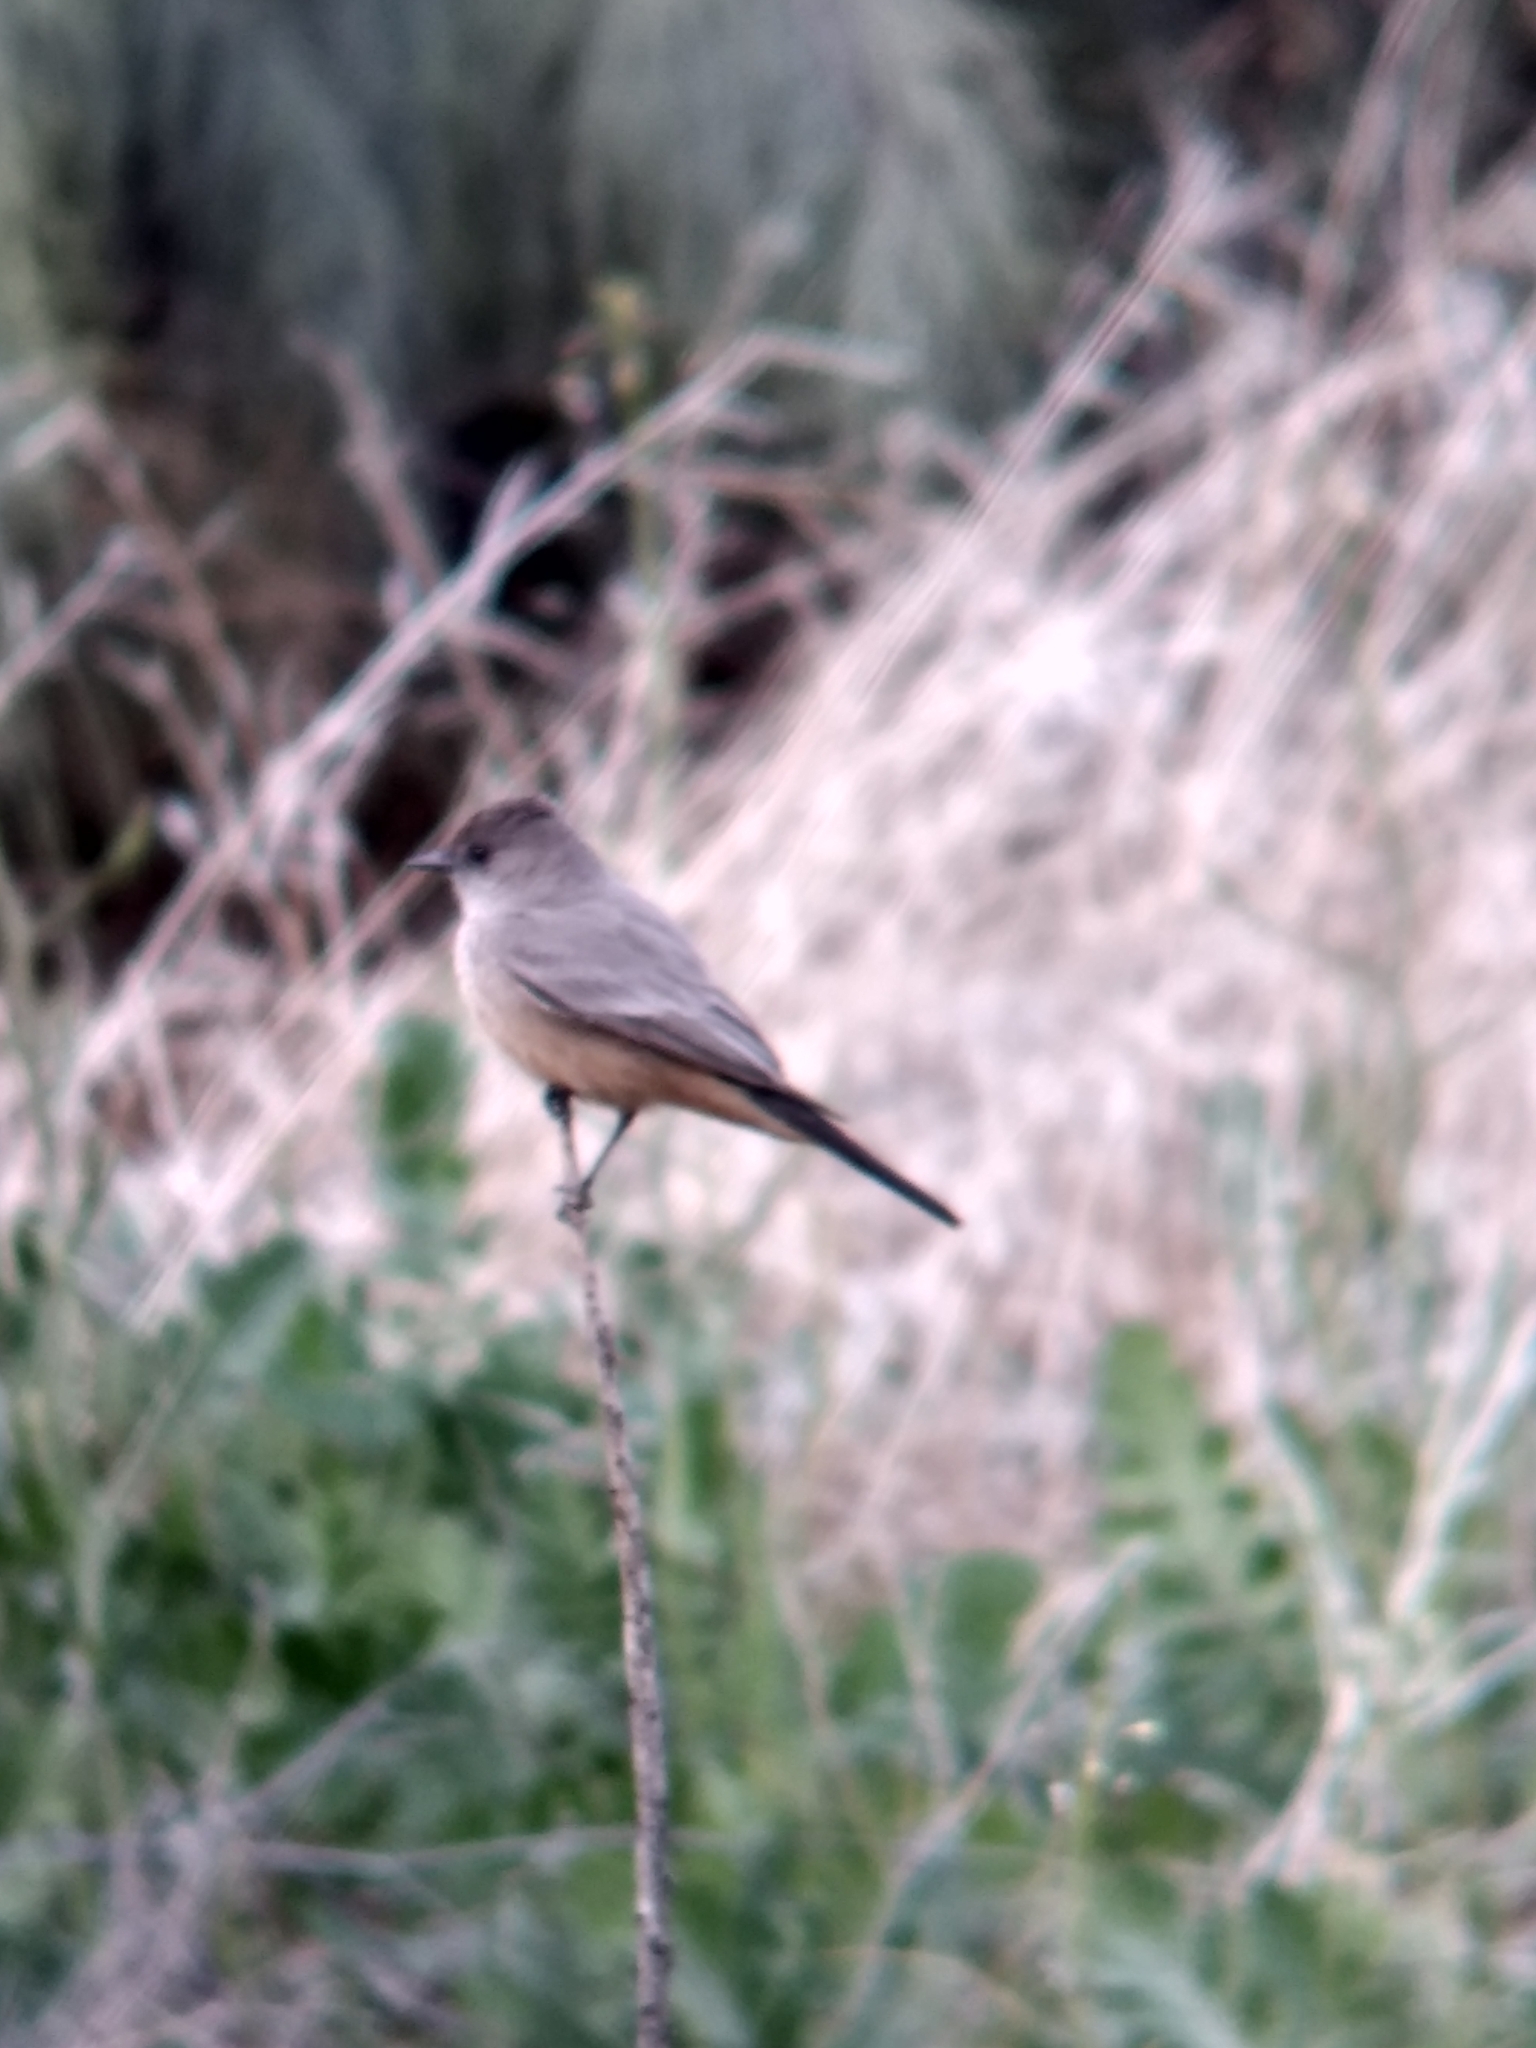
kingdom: Animalia
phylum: Chordata
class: Aves
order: Passeriformes
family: Tyrannidae
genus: Sayornis
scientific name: Sayornis saya
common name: Say's phoebe
